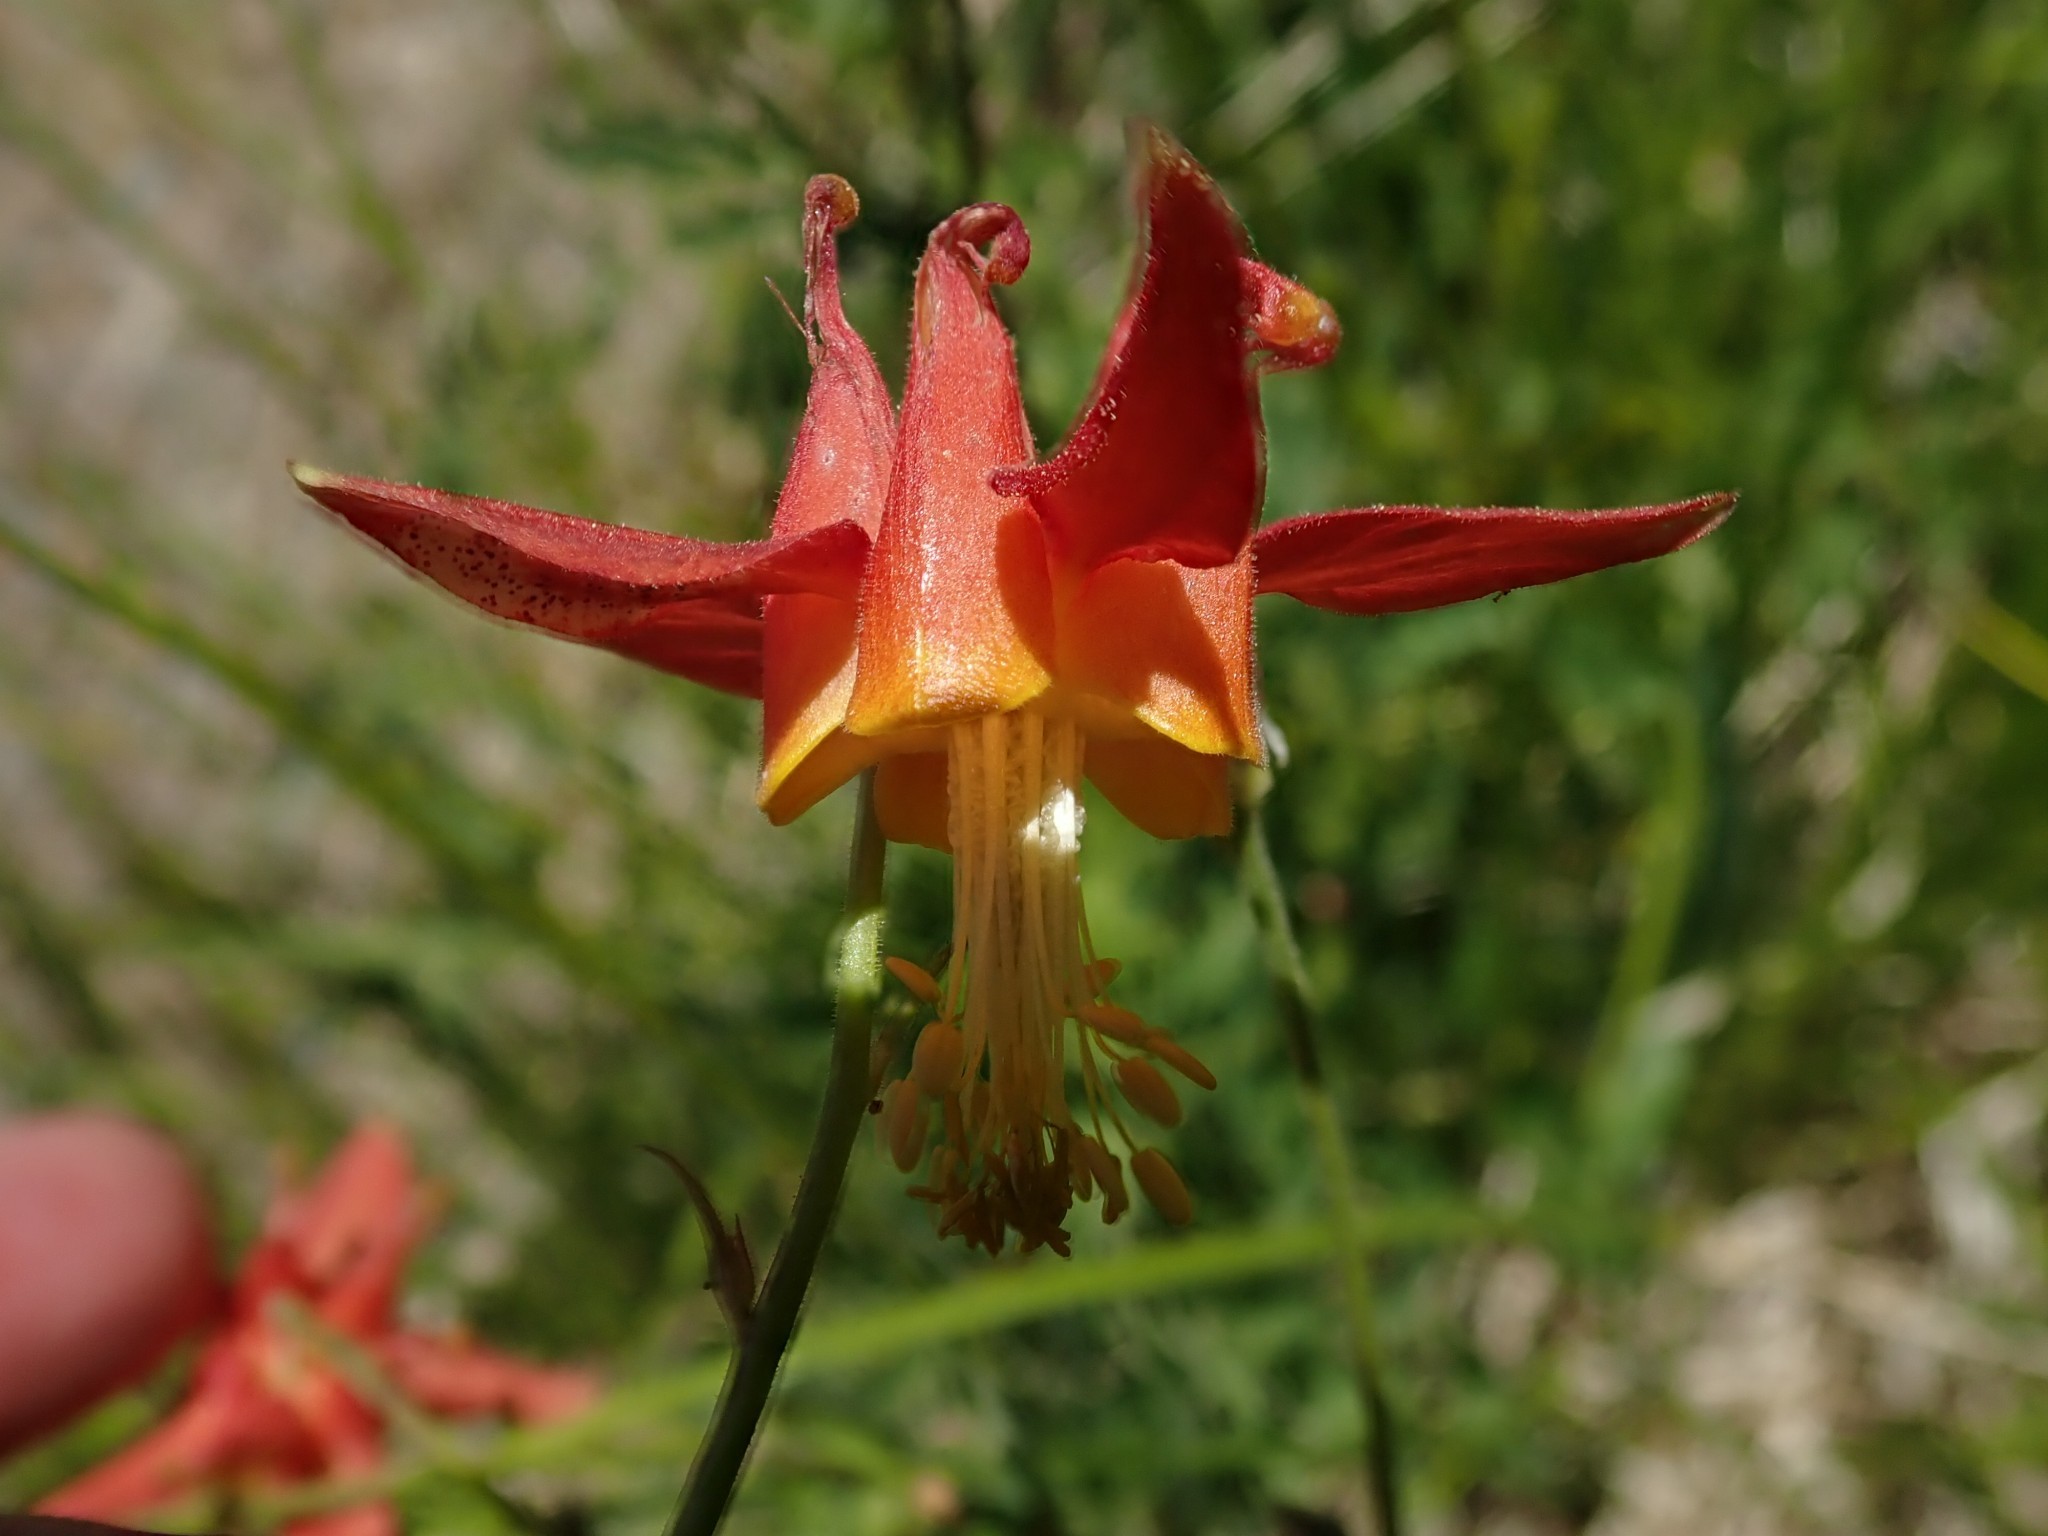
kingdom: Plantae
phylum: Tracheophyta
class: Magnoliopsida
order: Ranunculales
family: Ranunculaceae
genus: Aquilegia
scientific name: Aquilegia formosa
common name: Sitka columbine
